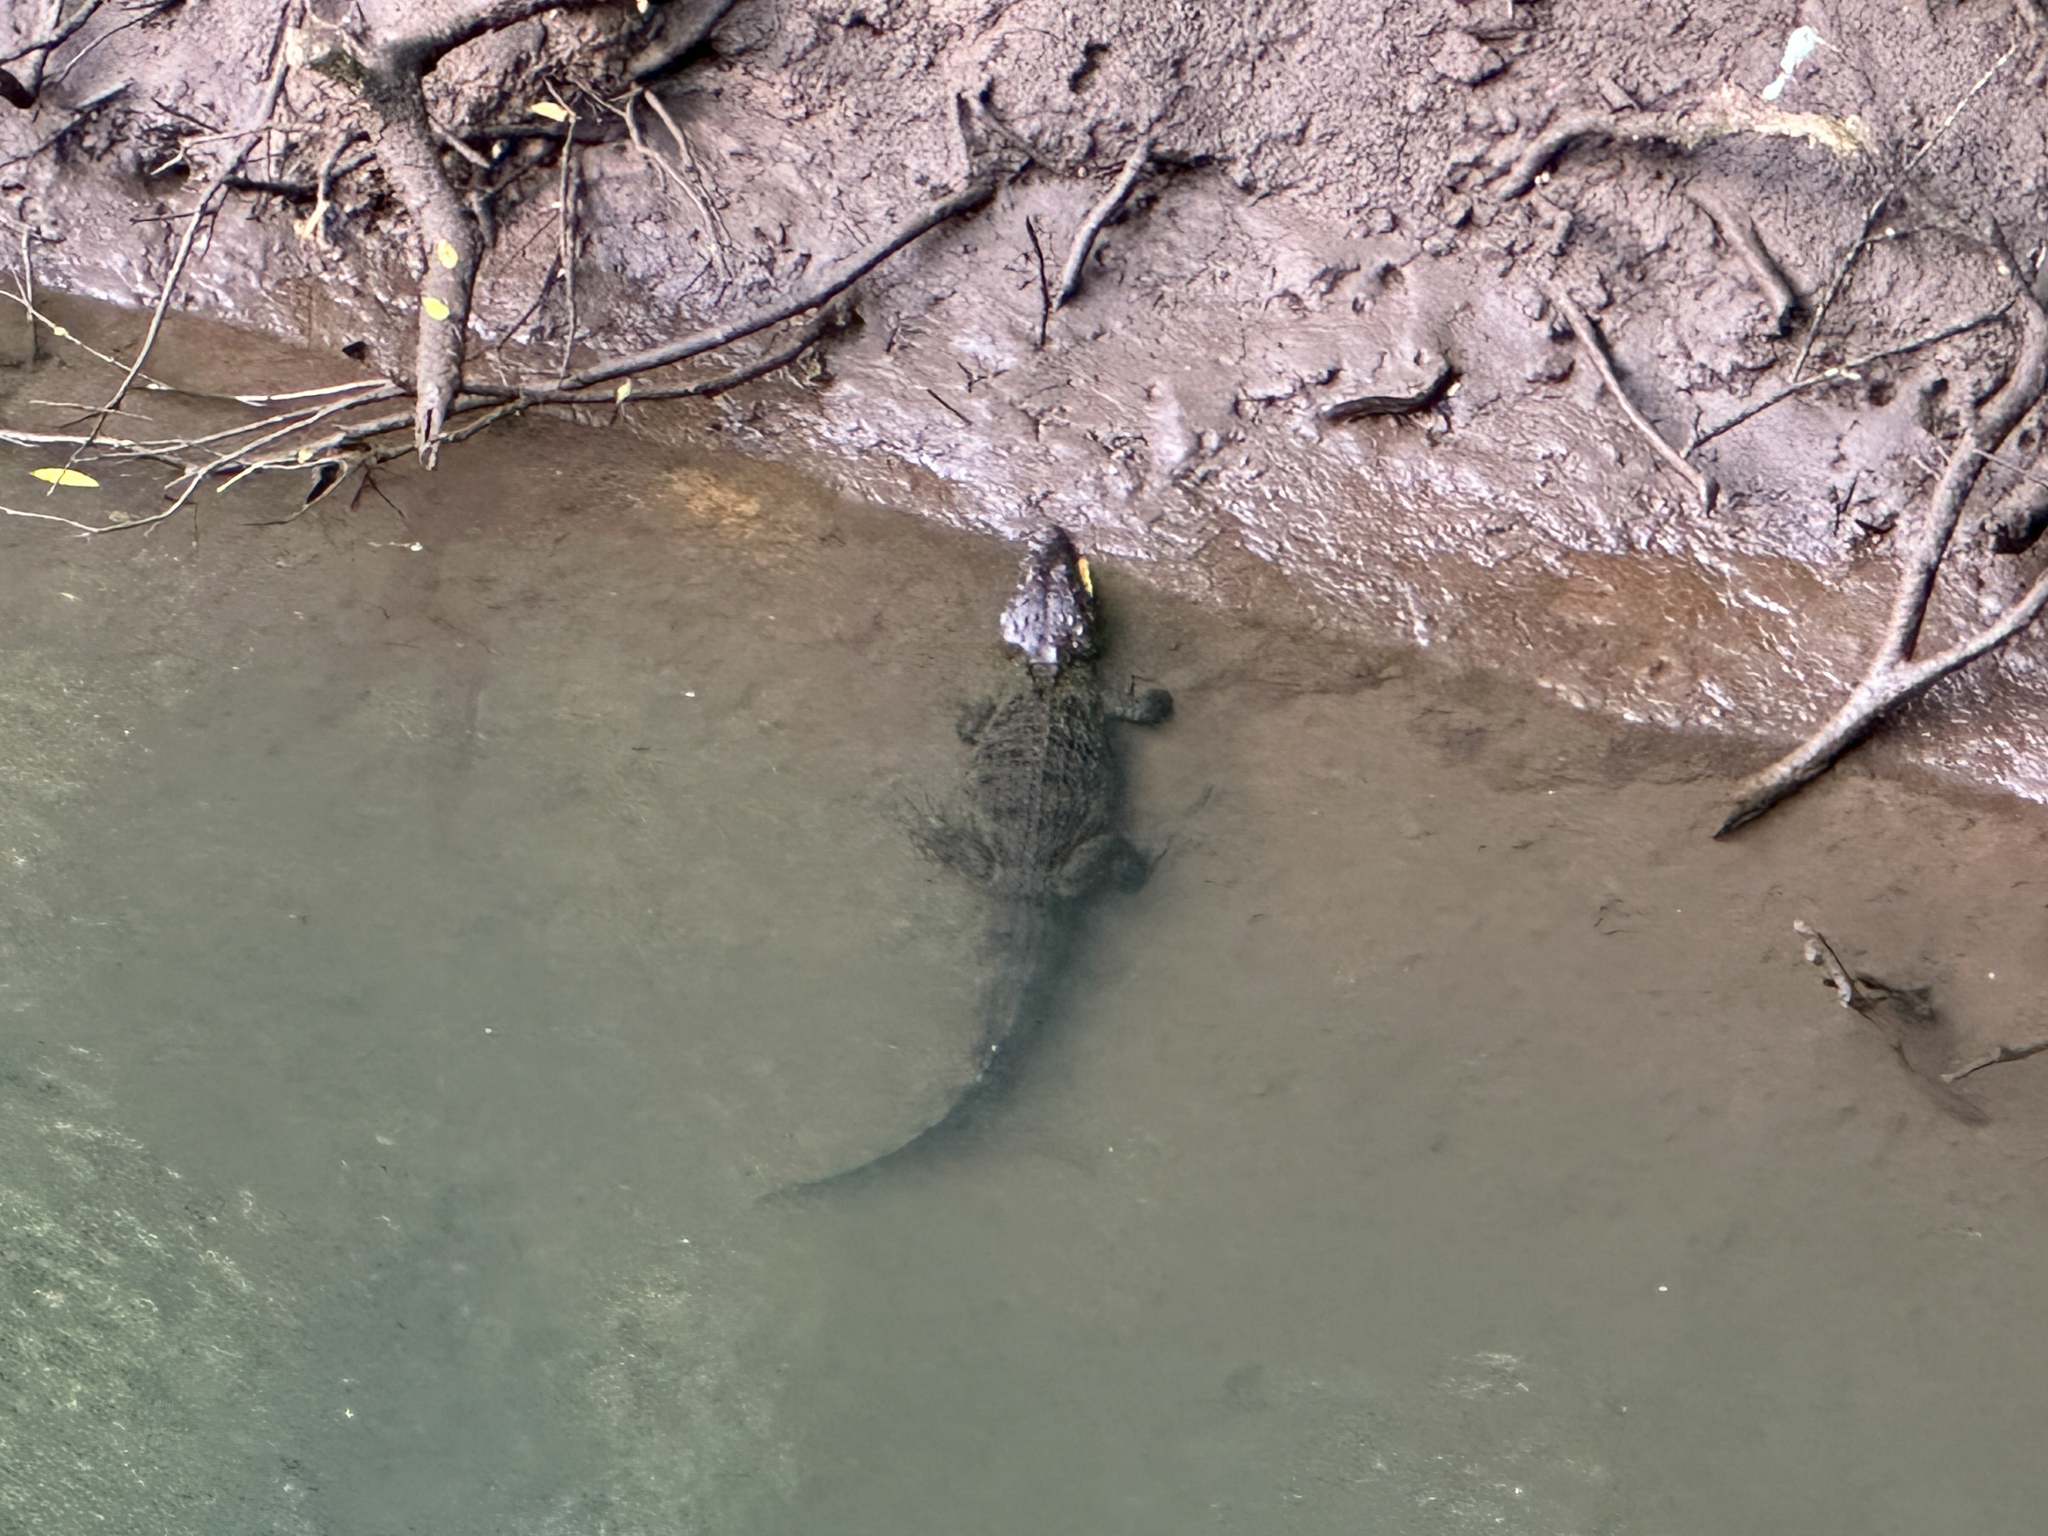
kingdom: Animalia
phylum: Chordata
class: Crocodylia
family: Alligatoridae
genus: Caiman
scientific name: Caiman crocodilus
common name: Common caiman
